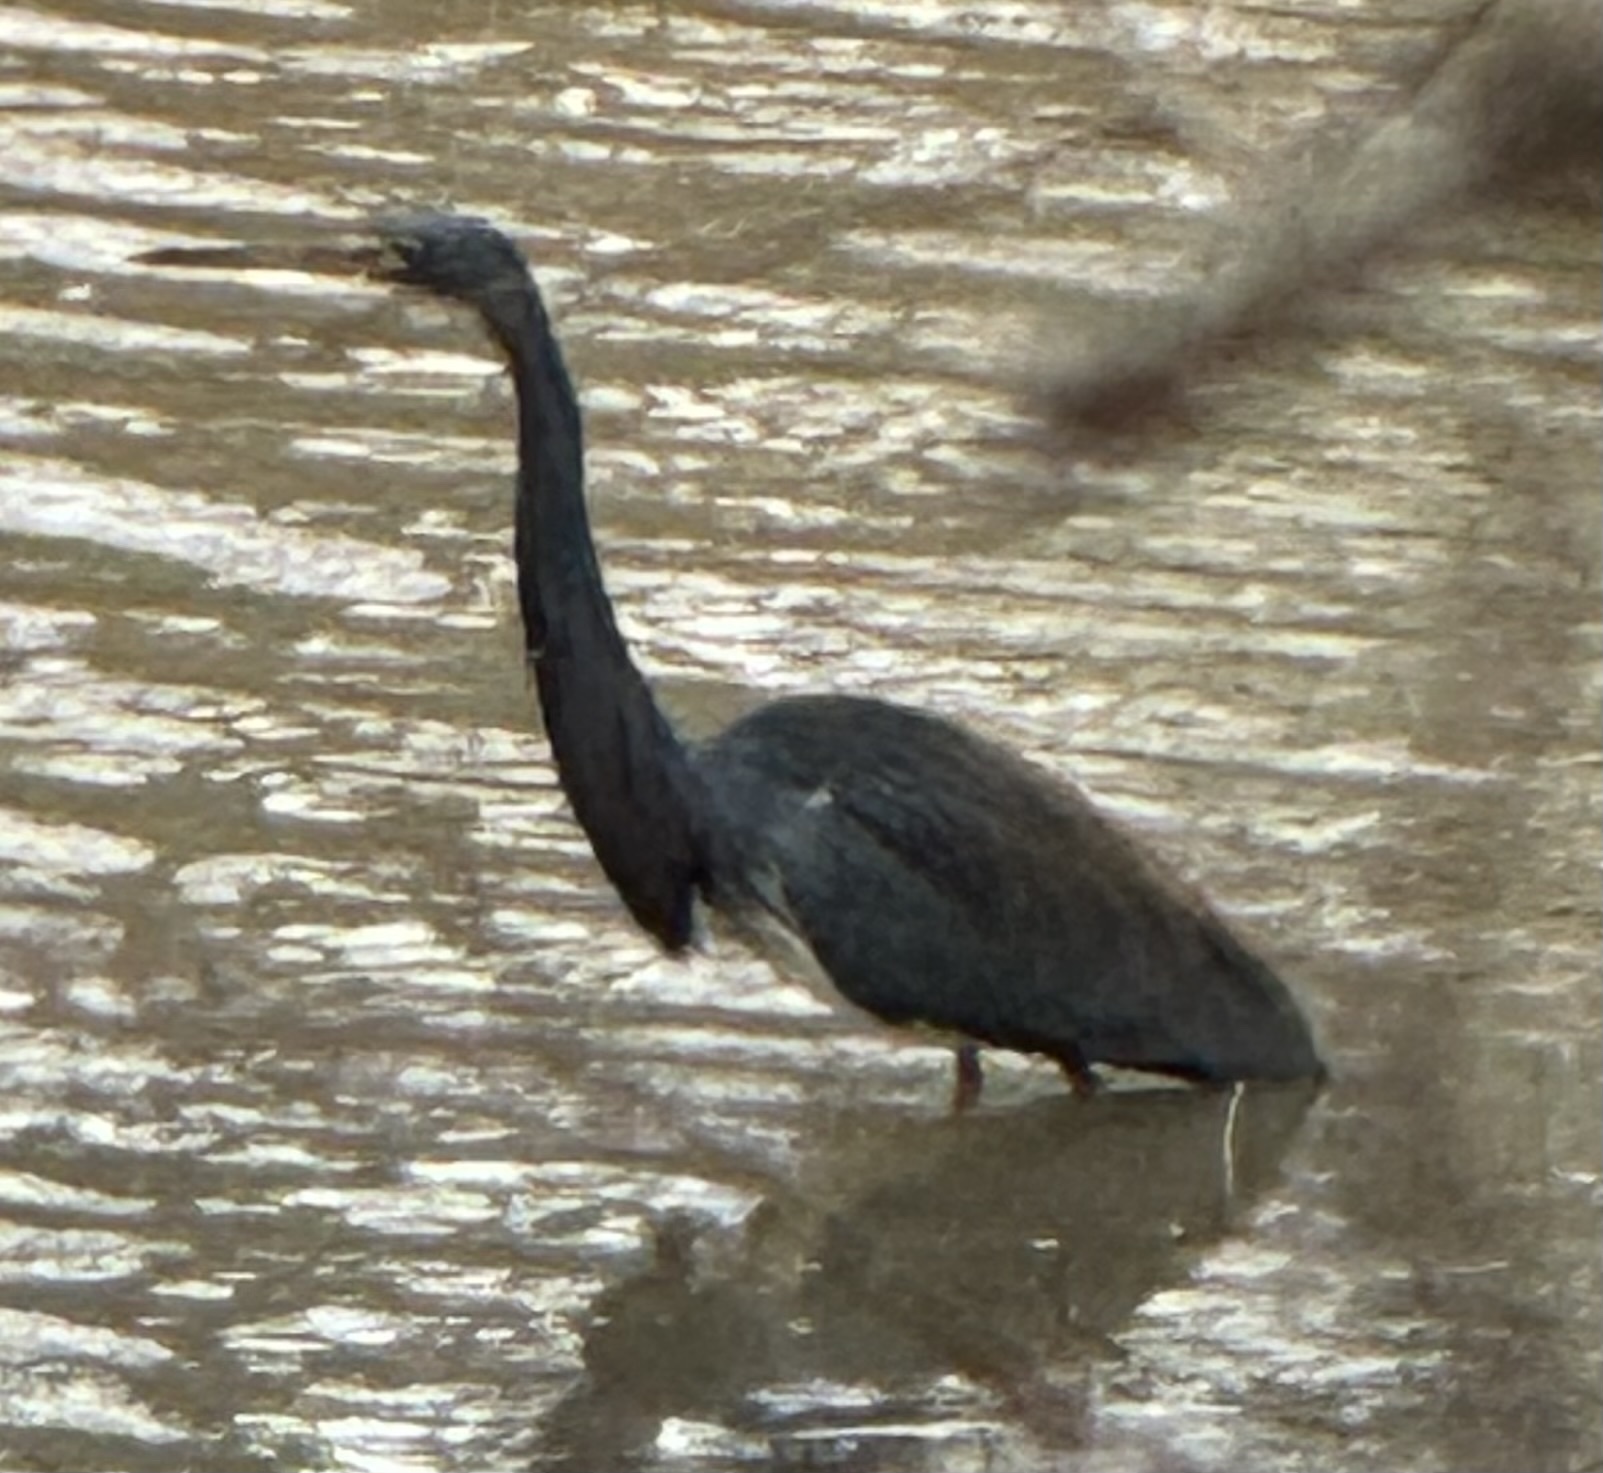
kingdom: Animalia
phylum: Chordata
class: Aves
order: Pelecaniformes
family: Ardeidae
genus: Egretta
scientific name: Egretta tricolor
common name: Tricolored heron
